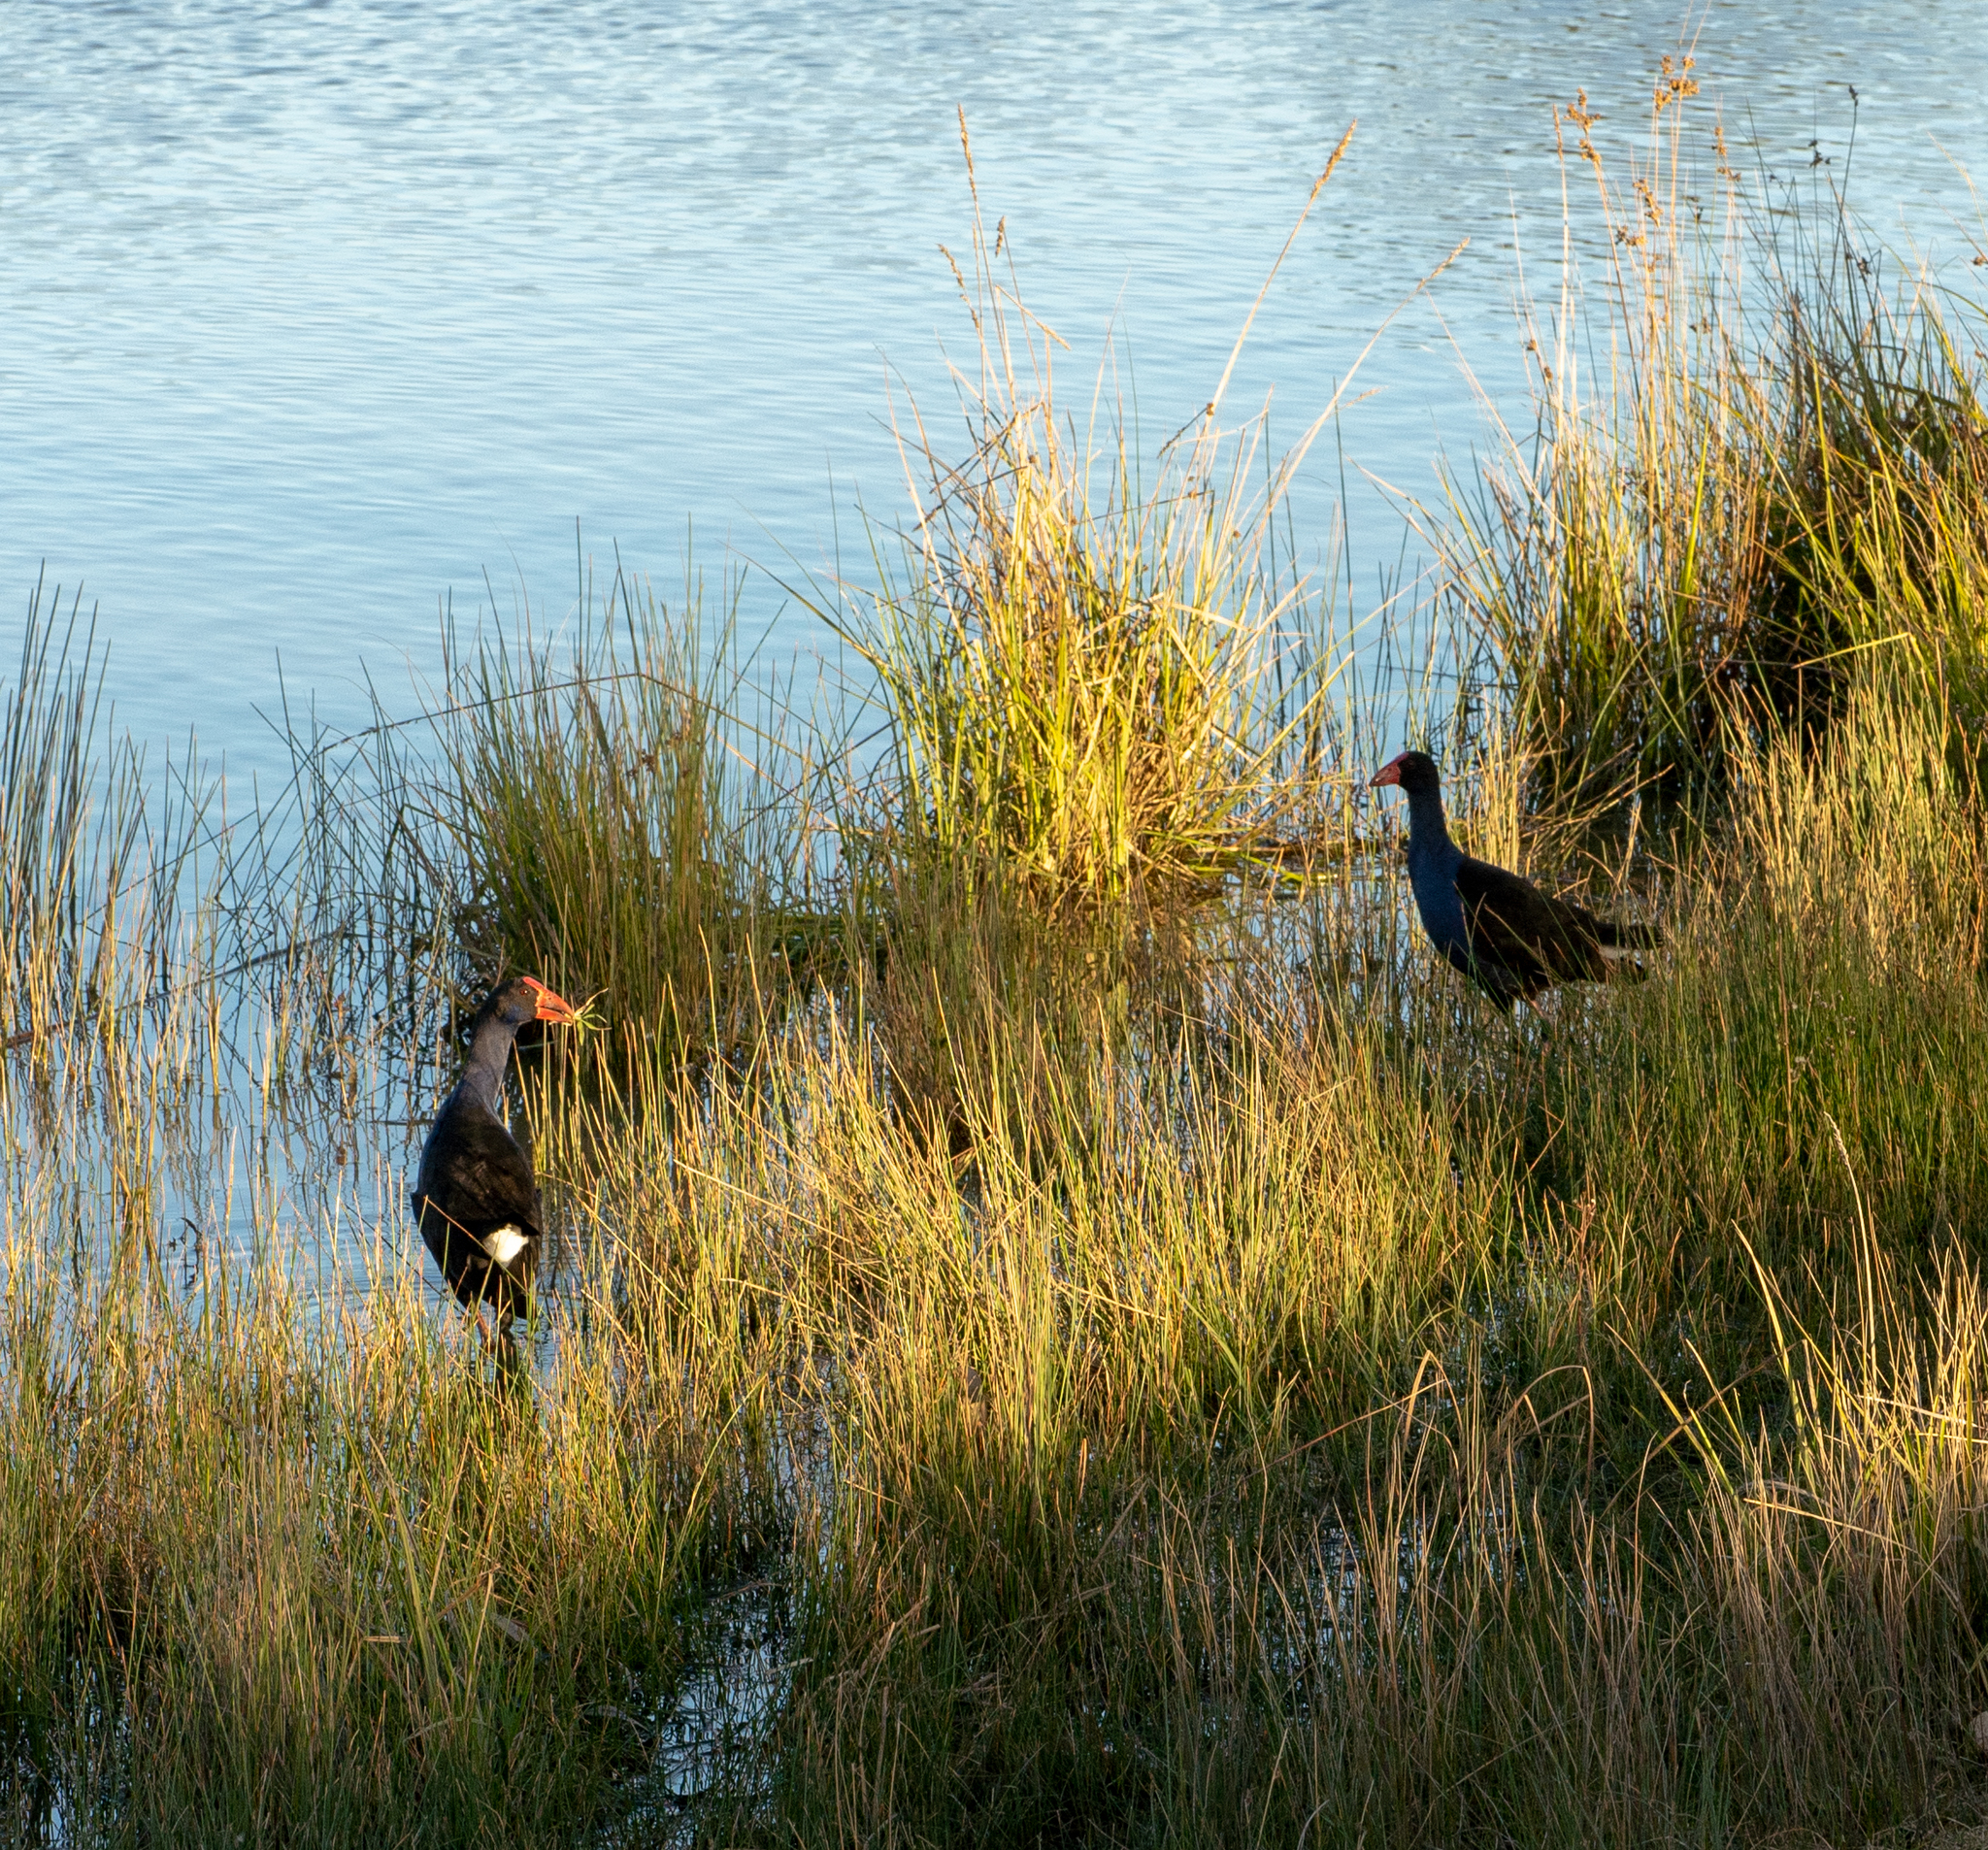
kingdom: Animalia
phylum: Chordata
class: Aves
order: Gruiformes
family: Rallidae
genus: Porphyrio
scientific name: Porphyrio melanotus
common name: Australasian swamphen
